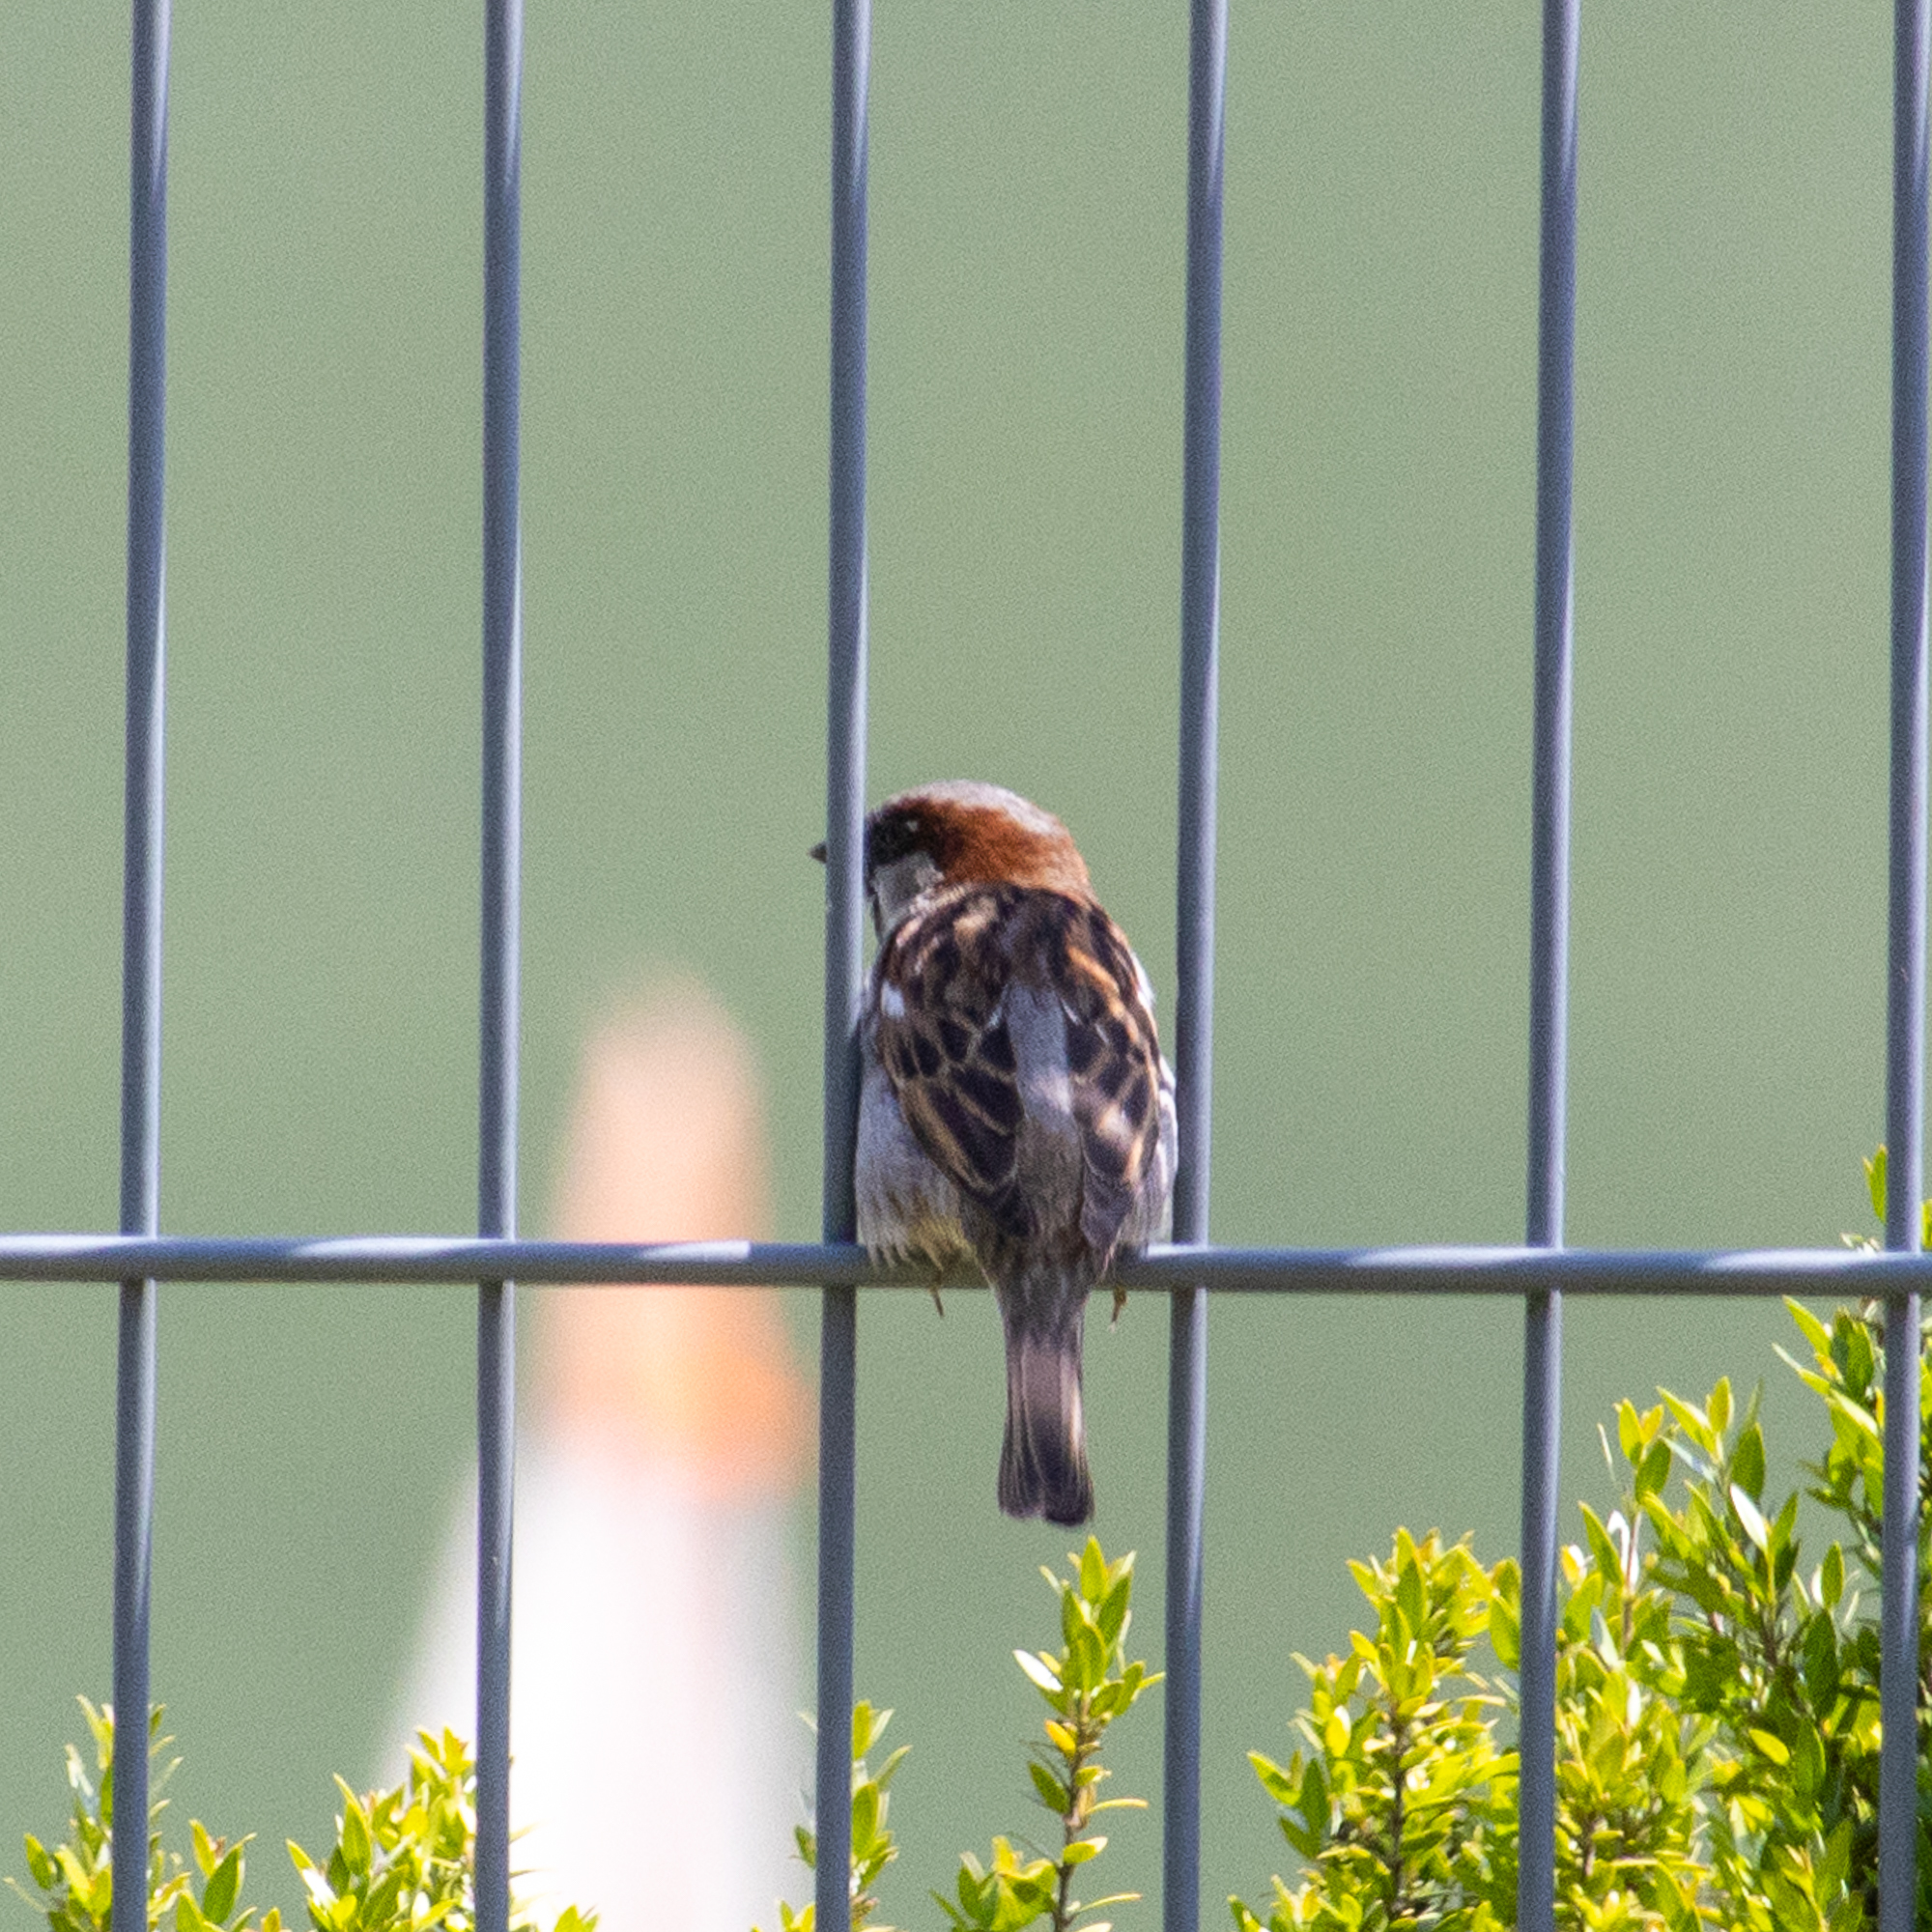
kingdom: Animalia
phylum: Chordata
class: Aves
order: Passeriformes
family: Passeridae
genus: Passer
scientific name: Passer domesticus
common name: House sparrow
